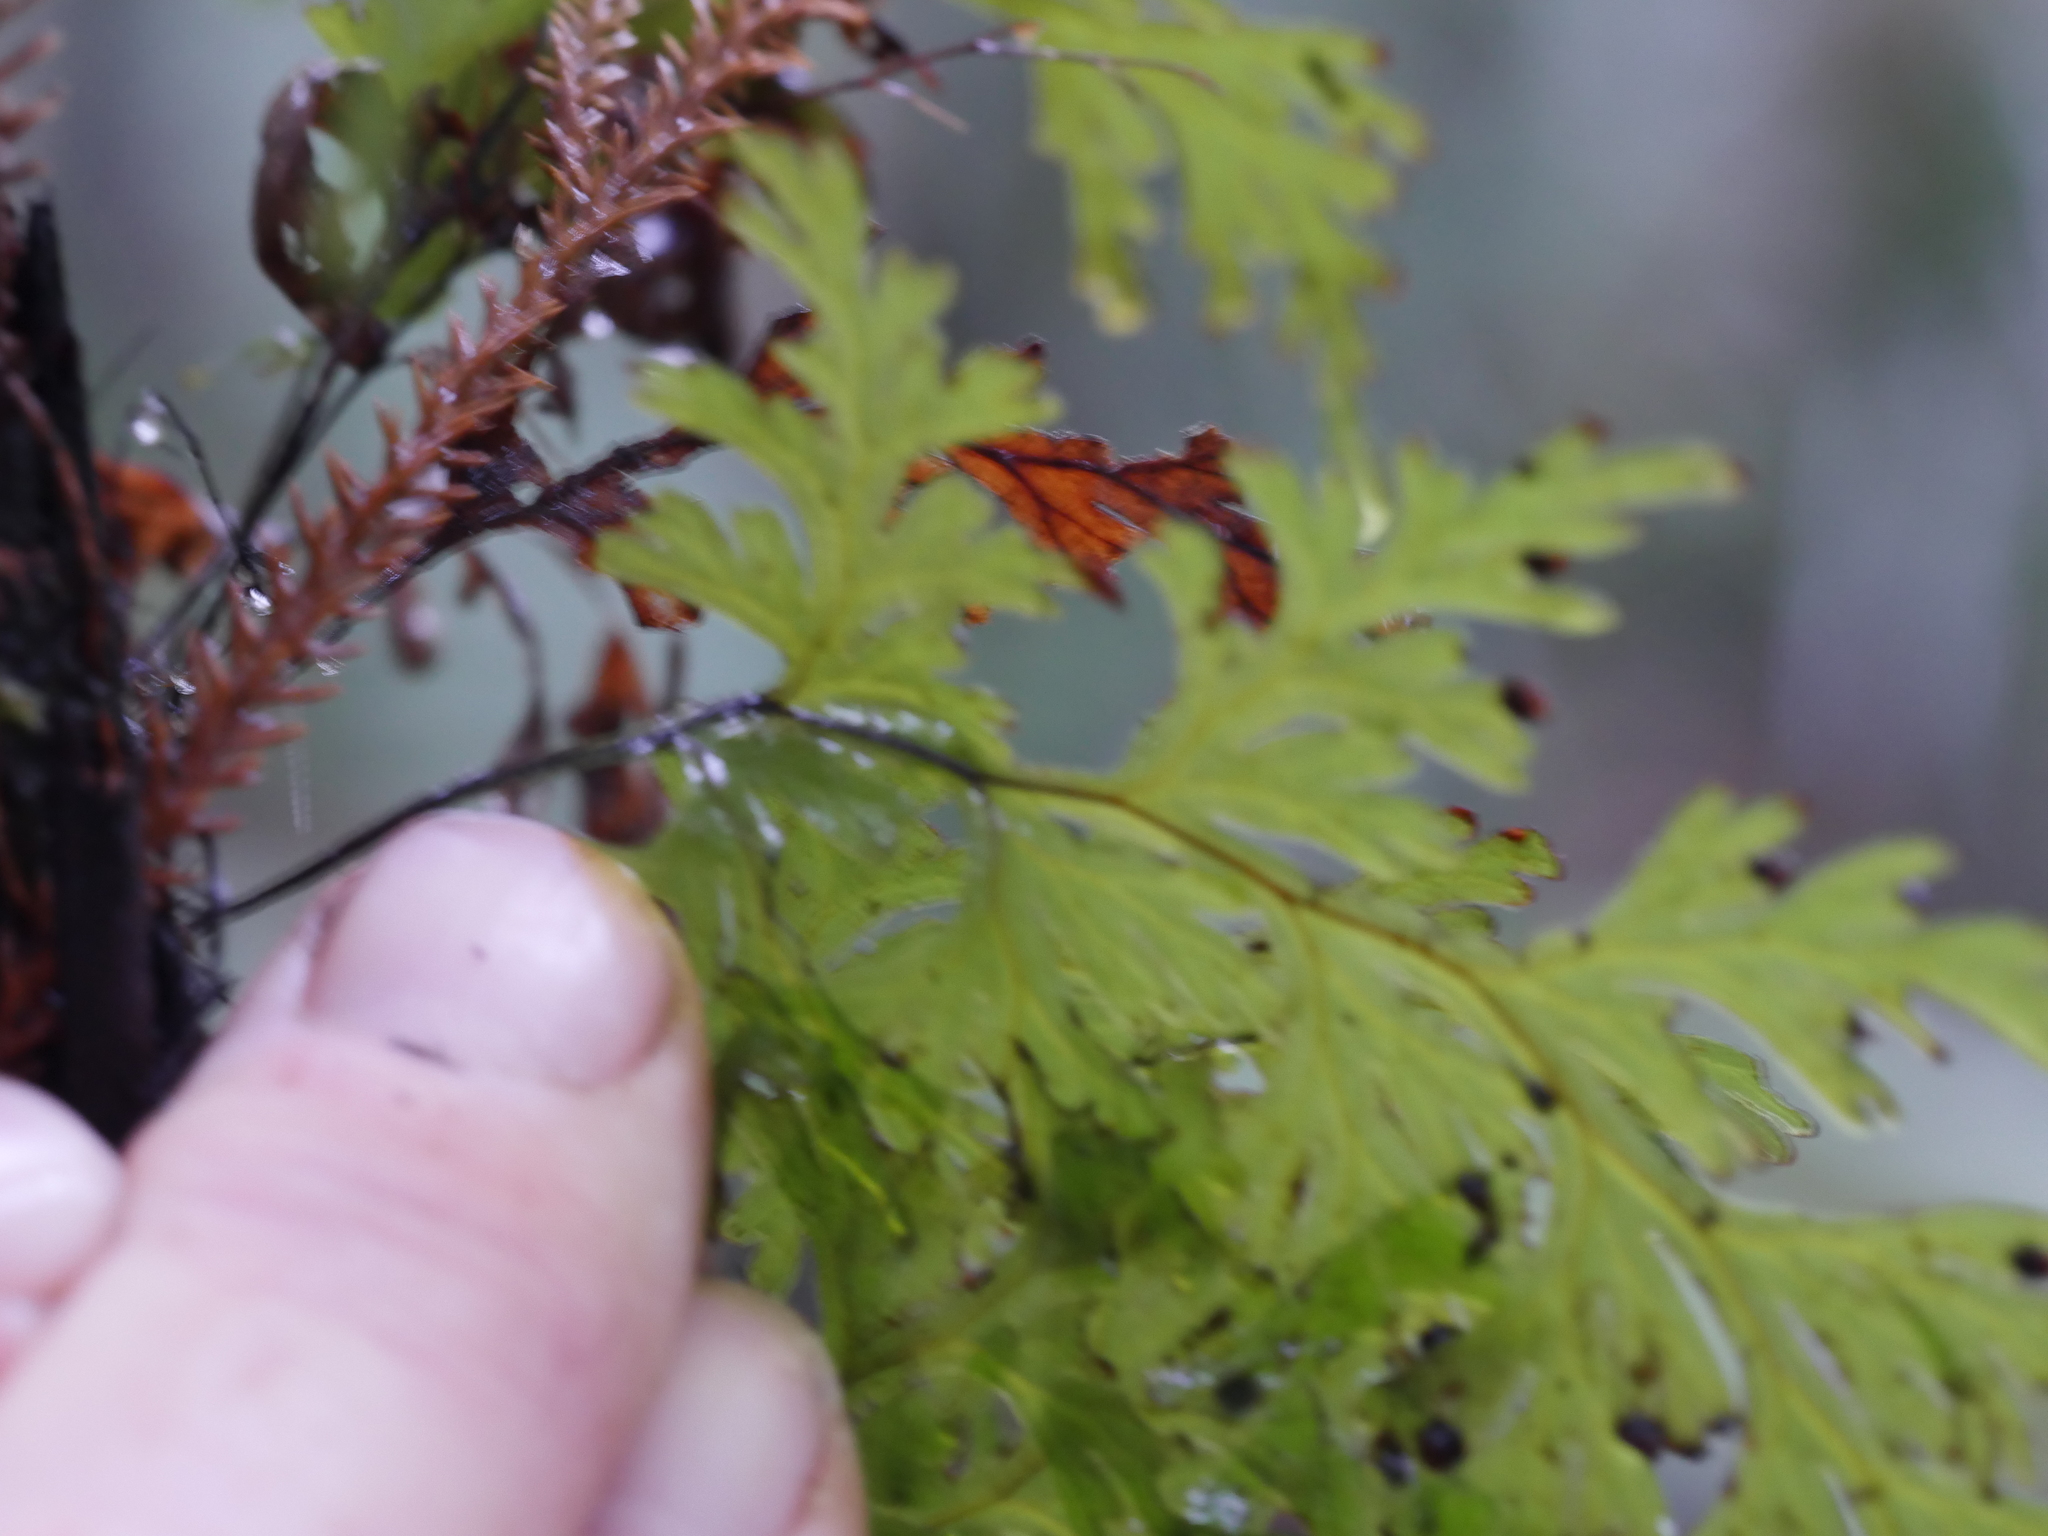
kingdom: Plantae
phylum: Tracheophyta
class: Polypodiopsida
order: Hymenophyllales
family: Hymenophyllaceae
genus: Hymenophyllum
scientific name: Hymenophyllum dilatatum
